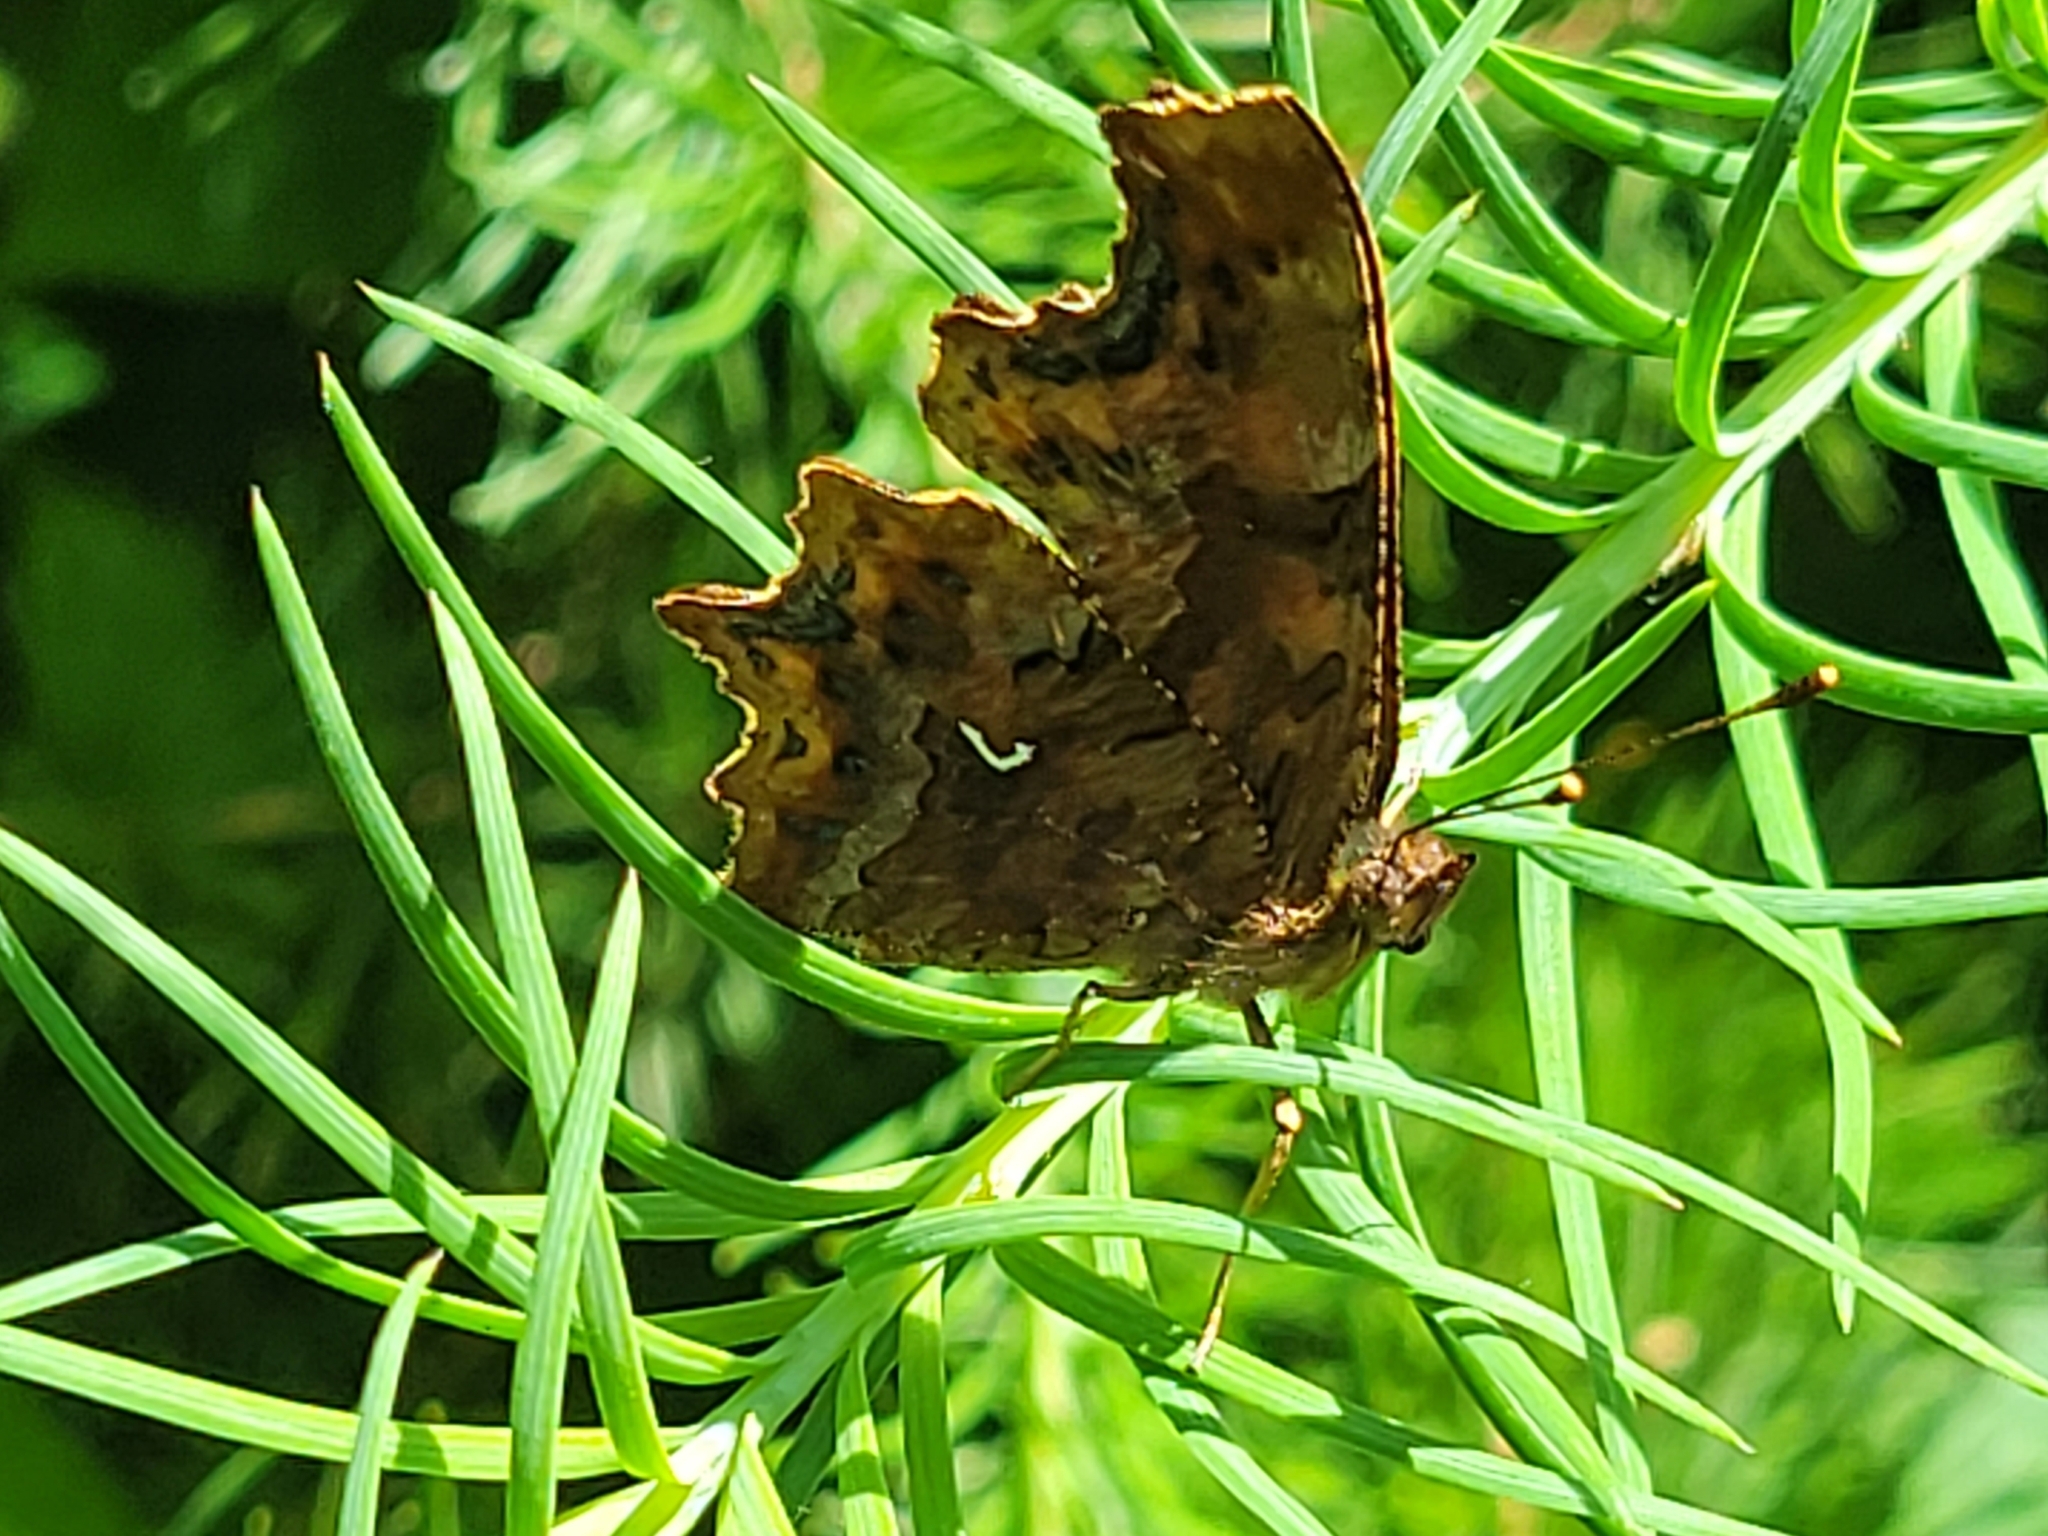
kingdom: Animalia
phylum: Arthropoda
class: Insecta
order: Lepidoptera
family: Nymphalidae
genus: Polygonia
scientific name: Polygonia c-album
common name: Comma
